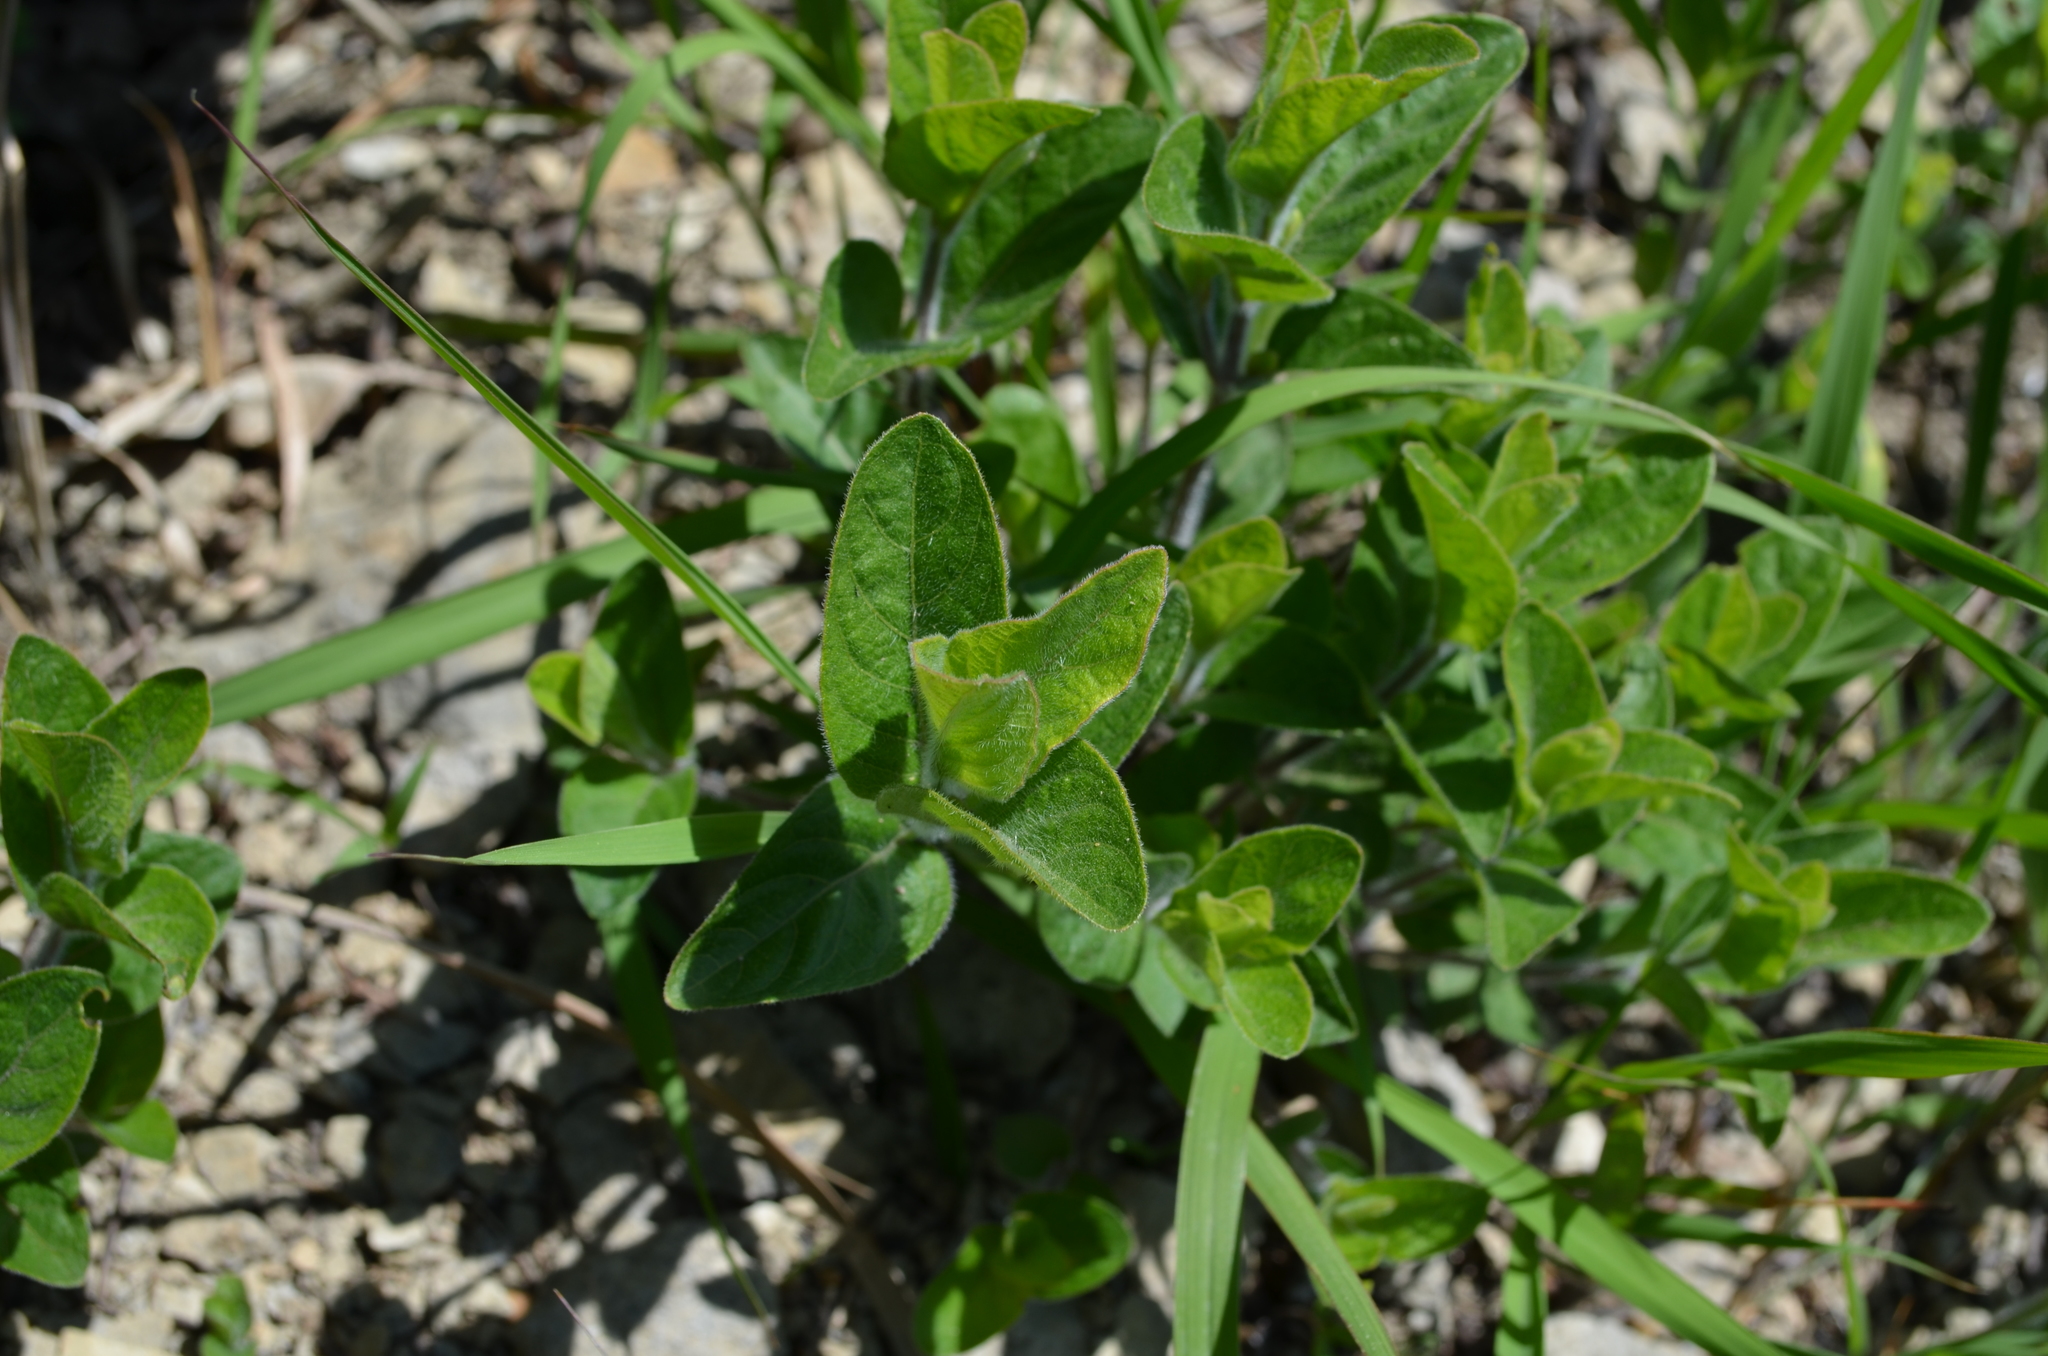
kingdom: Plantae
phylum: Tracheophyta
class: Magnoliopsida
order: Lamiales
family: Acanthaceae
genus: Ruellia
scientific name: Ruellia humilis
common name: Fringe-leaf ruellia
